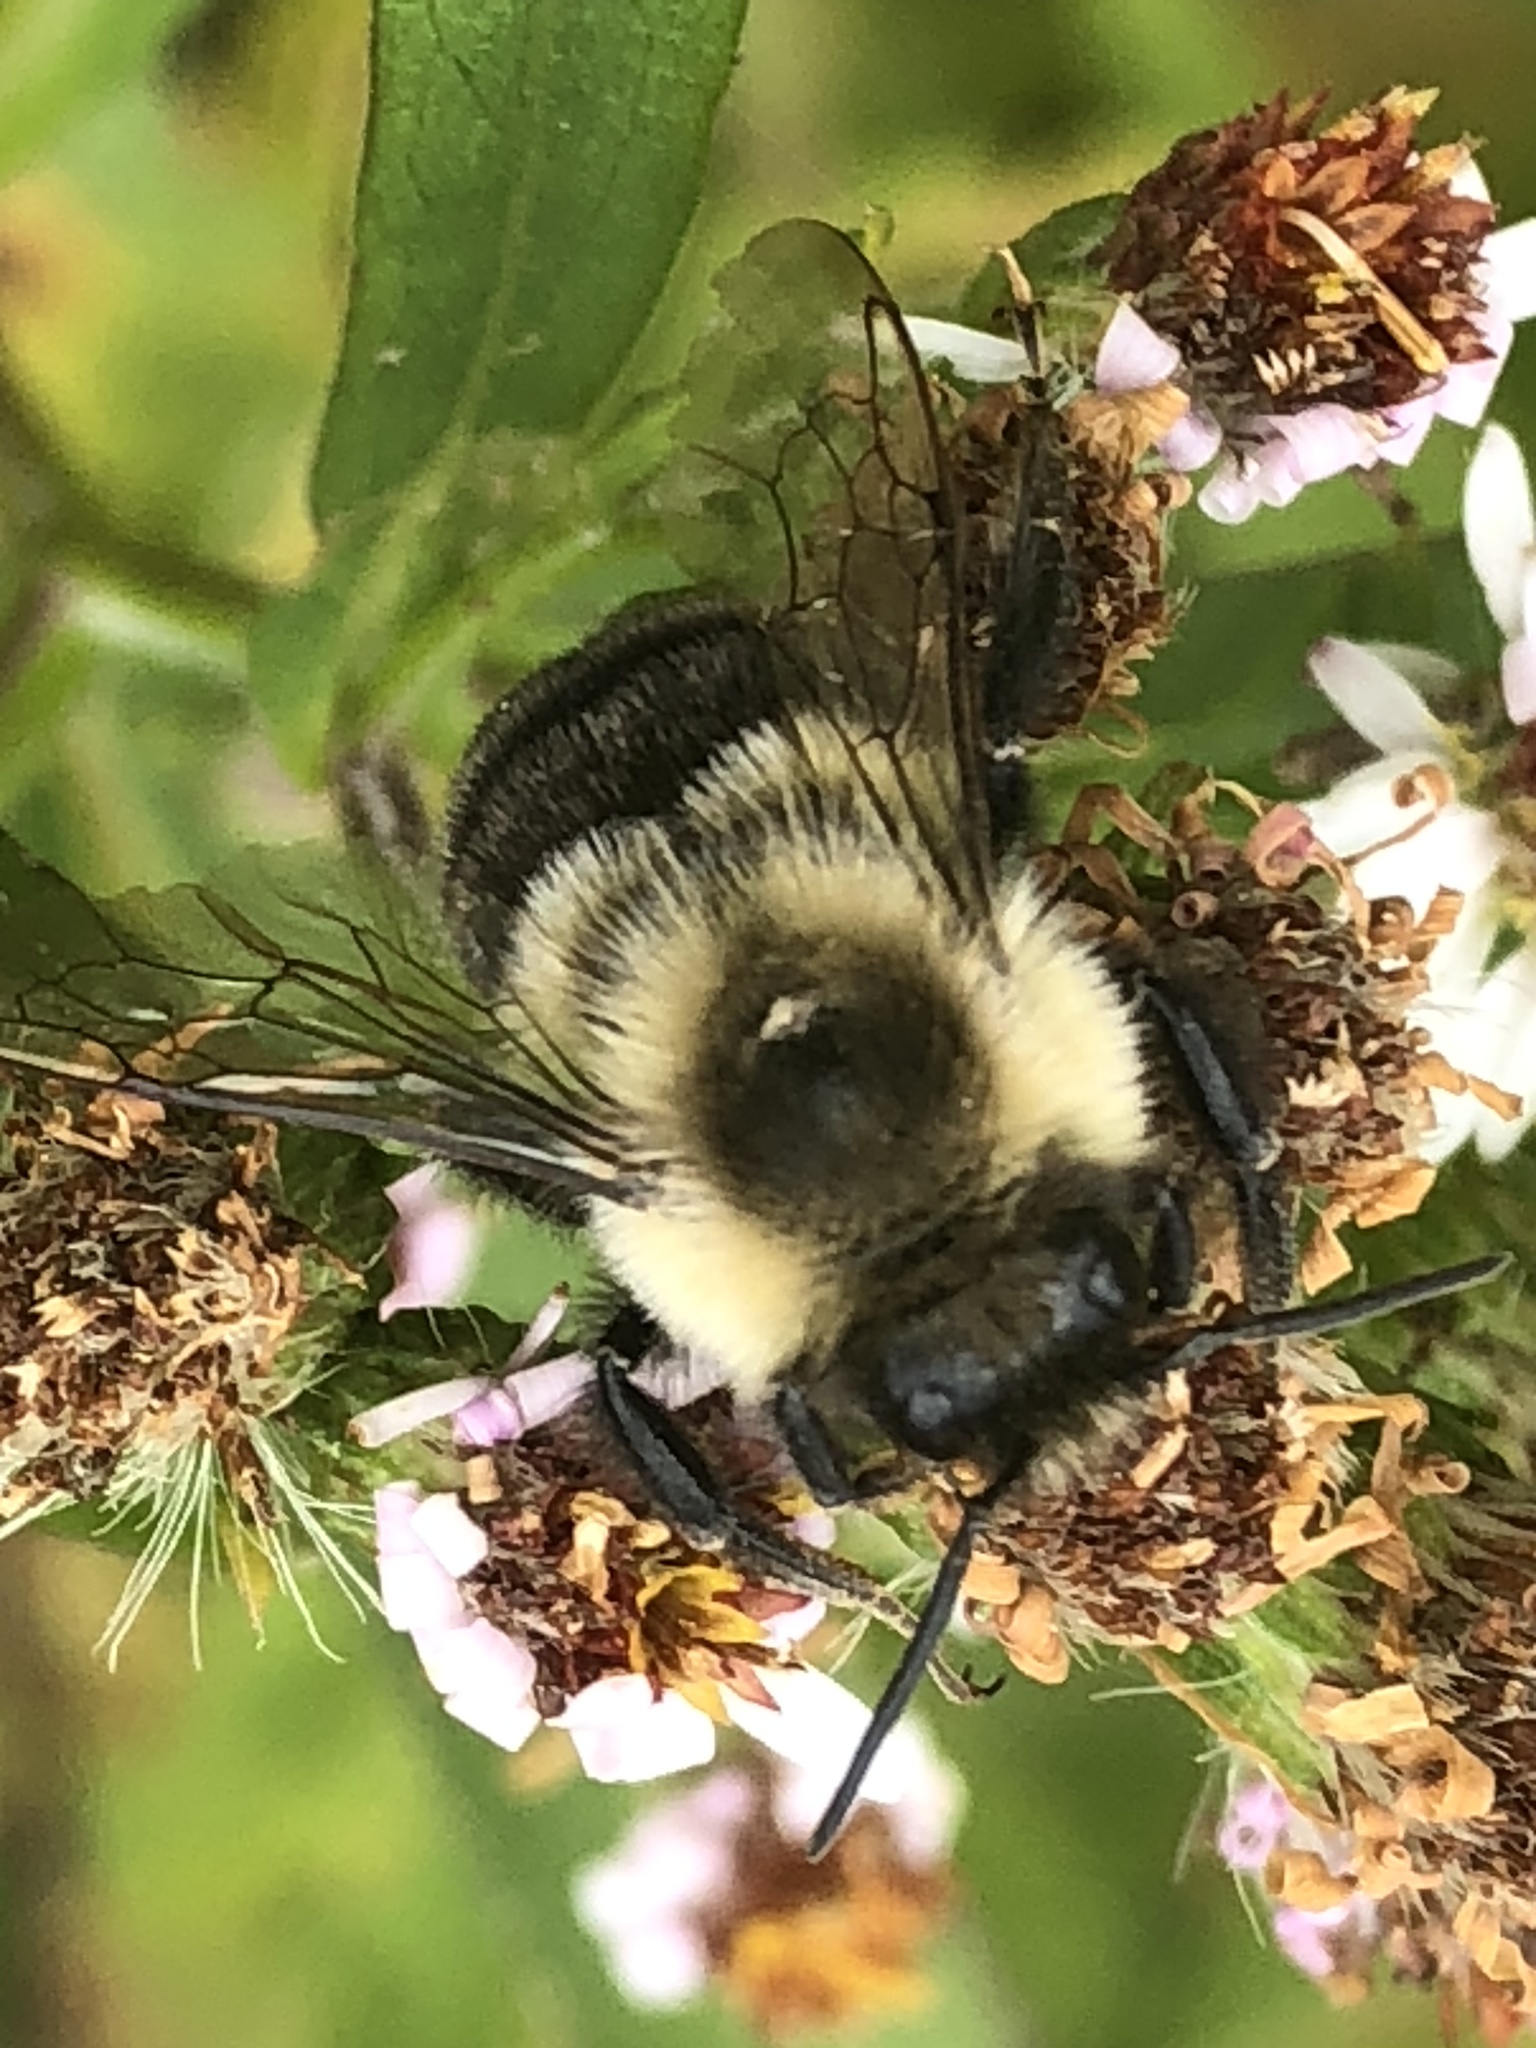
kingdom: Animalia
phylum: Arthropoda
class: Insecta
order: Hymenoptera
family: Apidae
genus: Bombus
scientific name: Bombus impatiens
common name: Common eastern bumble bee
